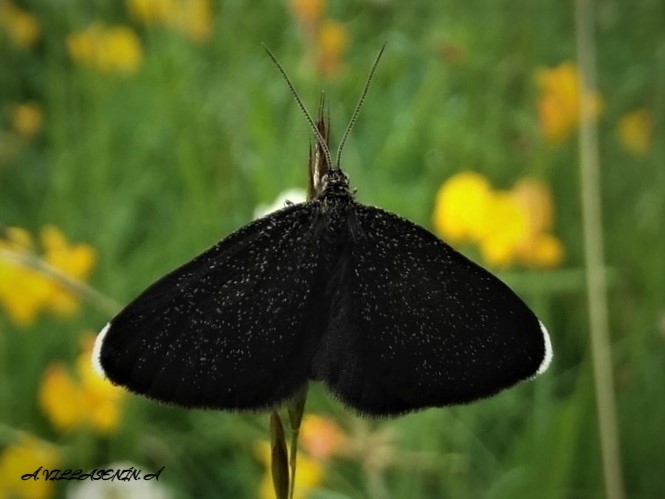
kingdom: Animalia
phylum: Arthropoda
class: Insecta
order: Lepidoptera
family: Geometridae
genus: Odezia
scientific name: Odezia atrata
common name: Chimney sweeper
